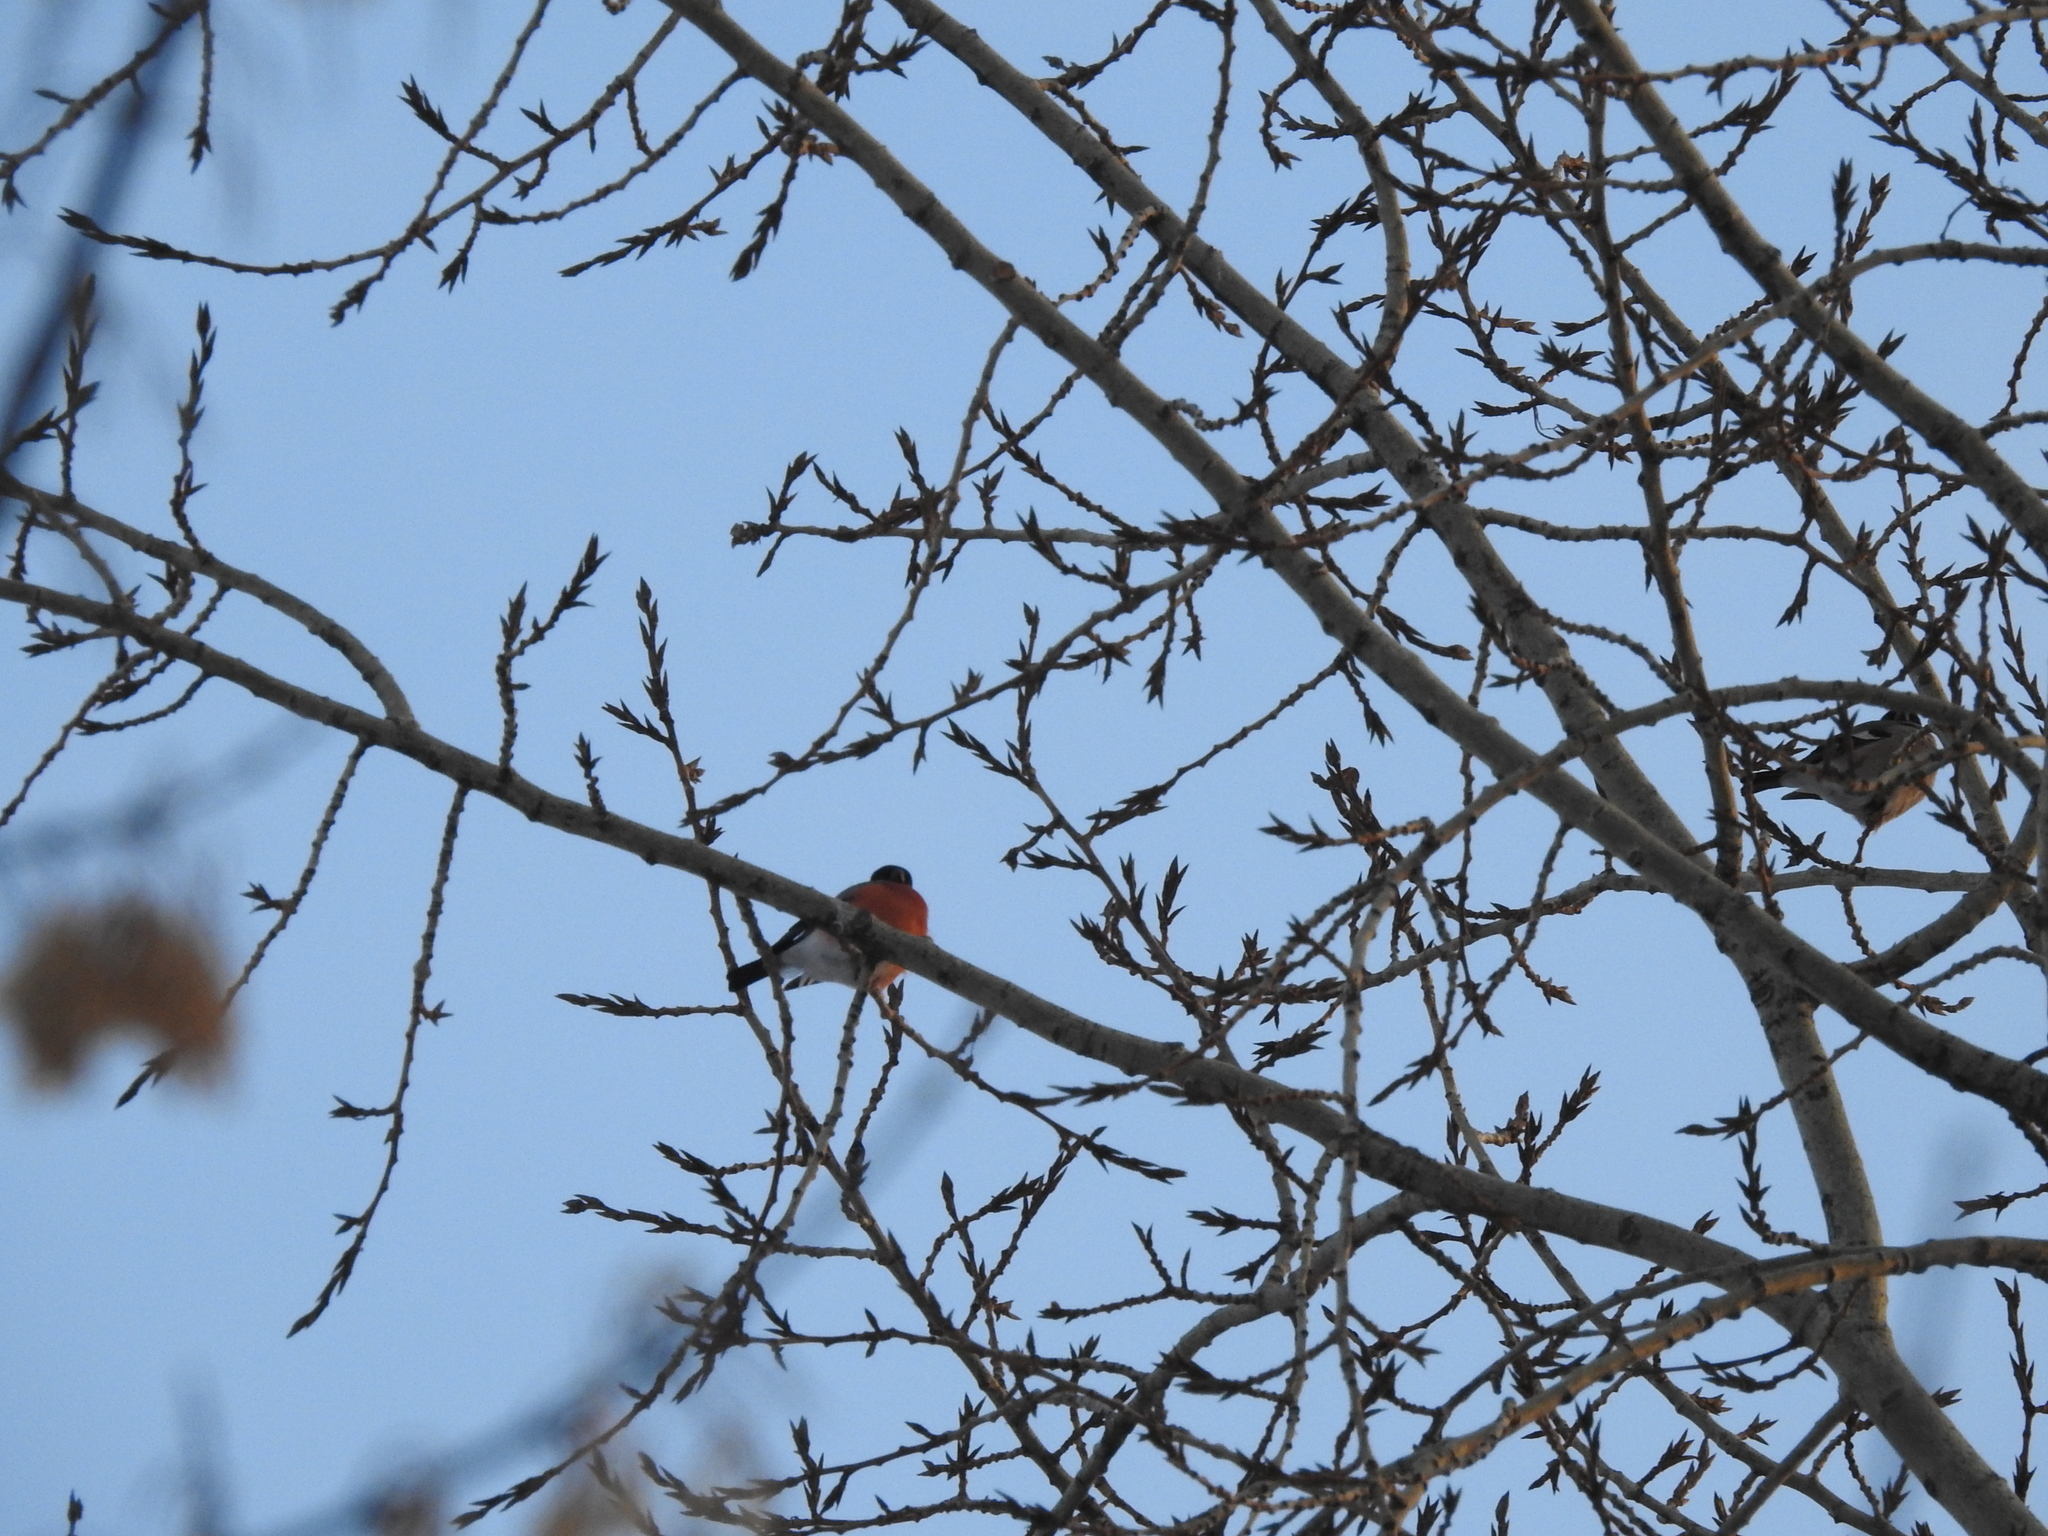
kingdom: Animalia
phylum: Chordata
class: Aves
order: Passeriformes
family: Fringillidae
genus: Pyrrhula
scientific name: Pyrrhula pyrrhula
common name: Eurasian bullfinch
